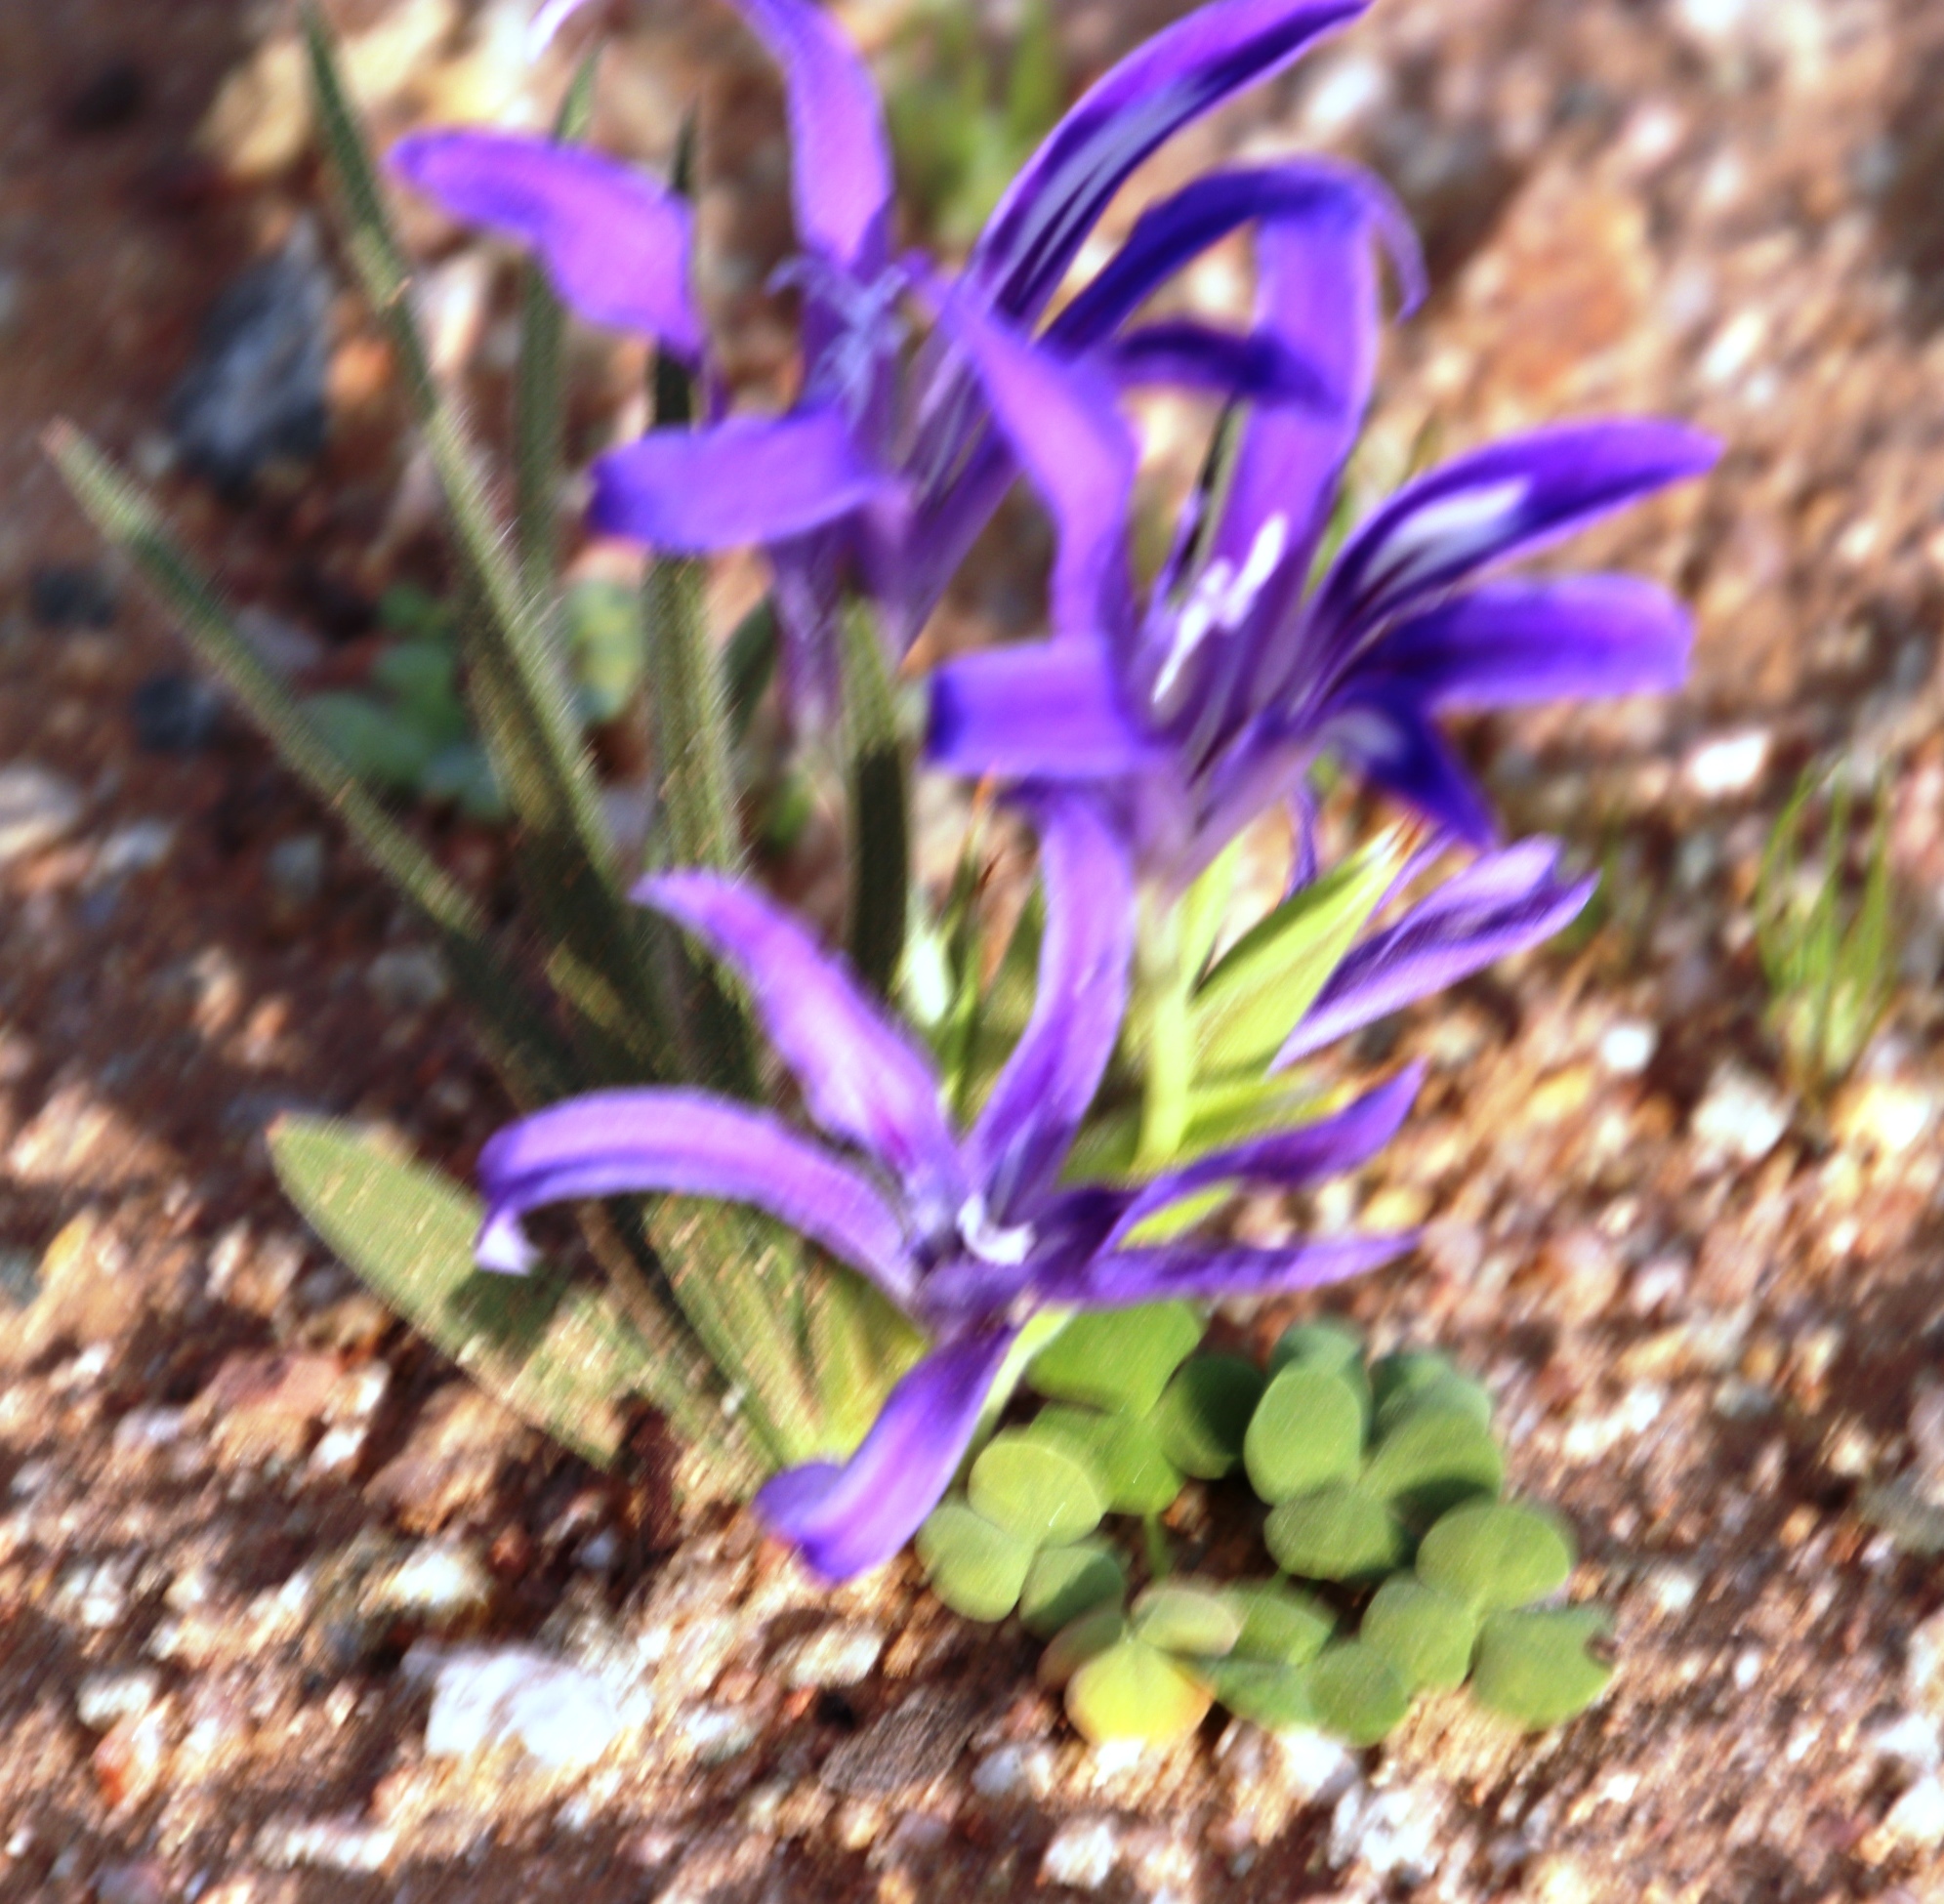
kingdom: Plantae
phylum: Tracheophyta
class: Liliopsida
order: Asparagales
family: Iridaceae
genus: Babiana
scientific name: Babiana curviscapa
